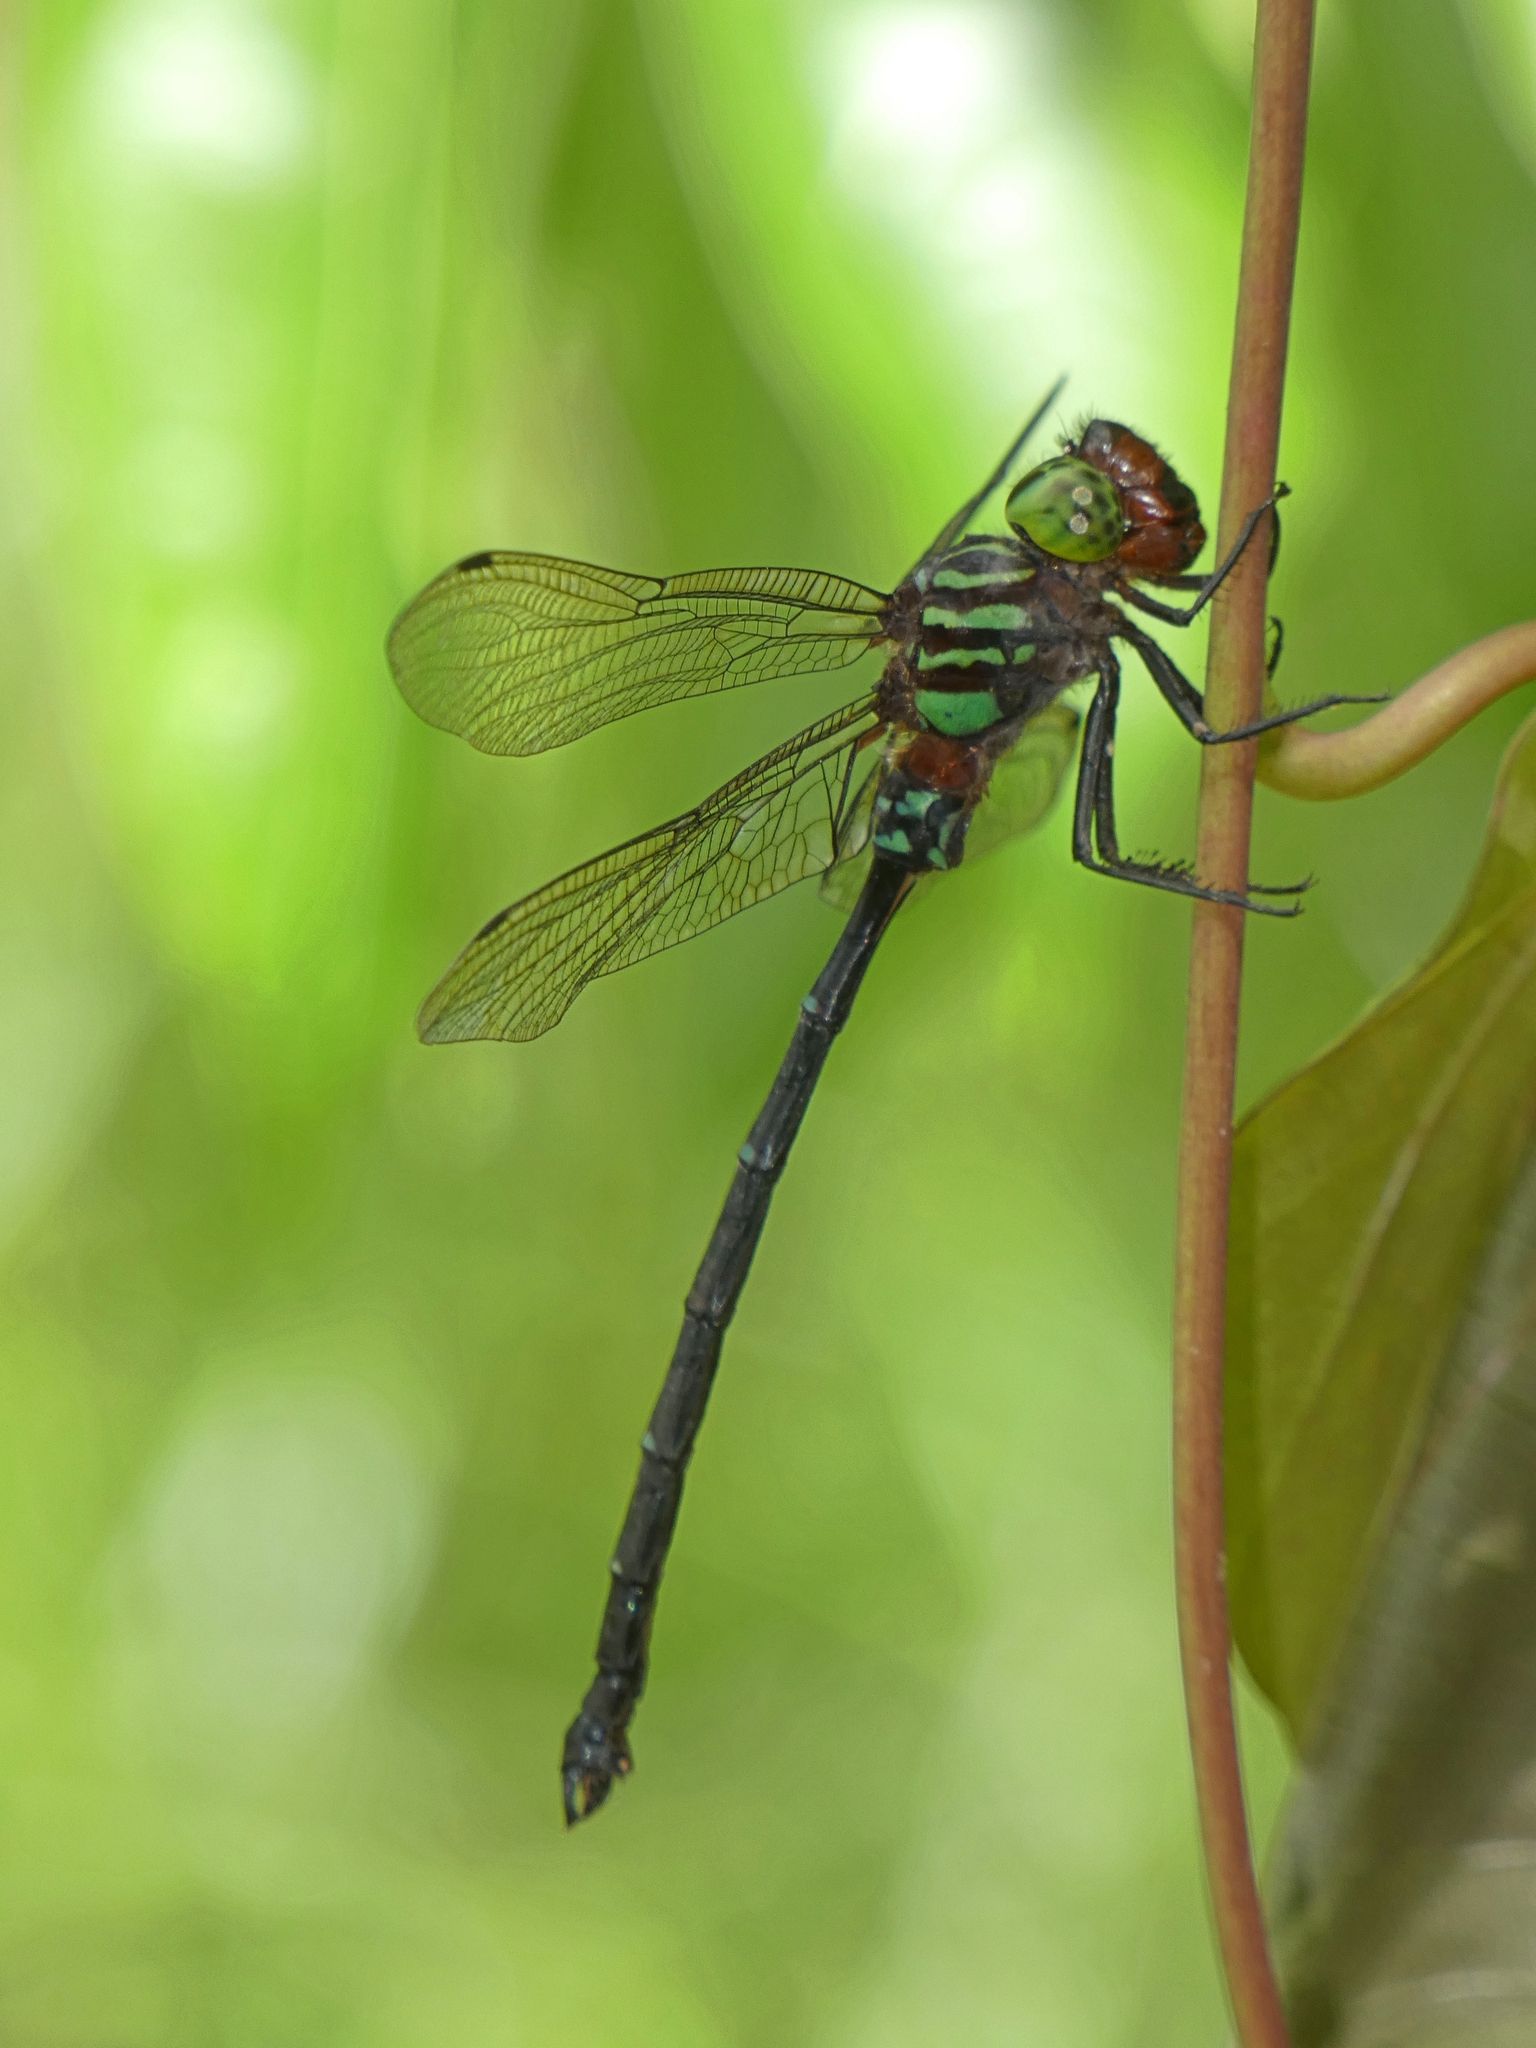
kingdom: Animalia
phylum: Arthropoda
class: Insecta
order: Odonata
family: Aeshnidae
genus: Dromaeschna
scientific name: Dromaeschna forcipata
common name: Green-striped darner
